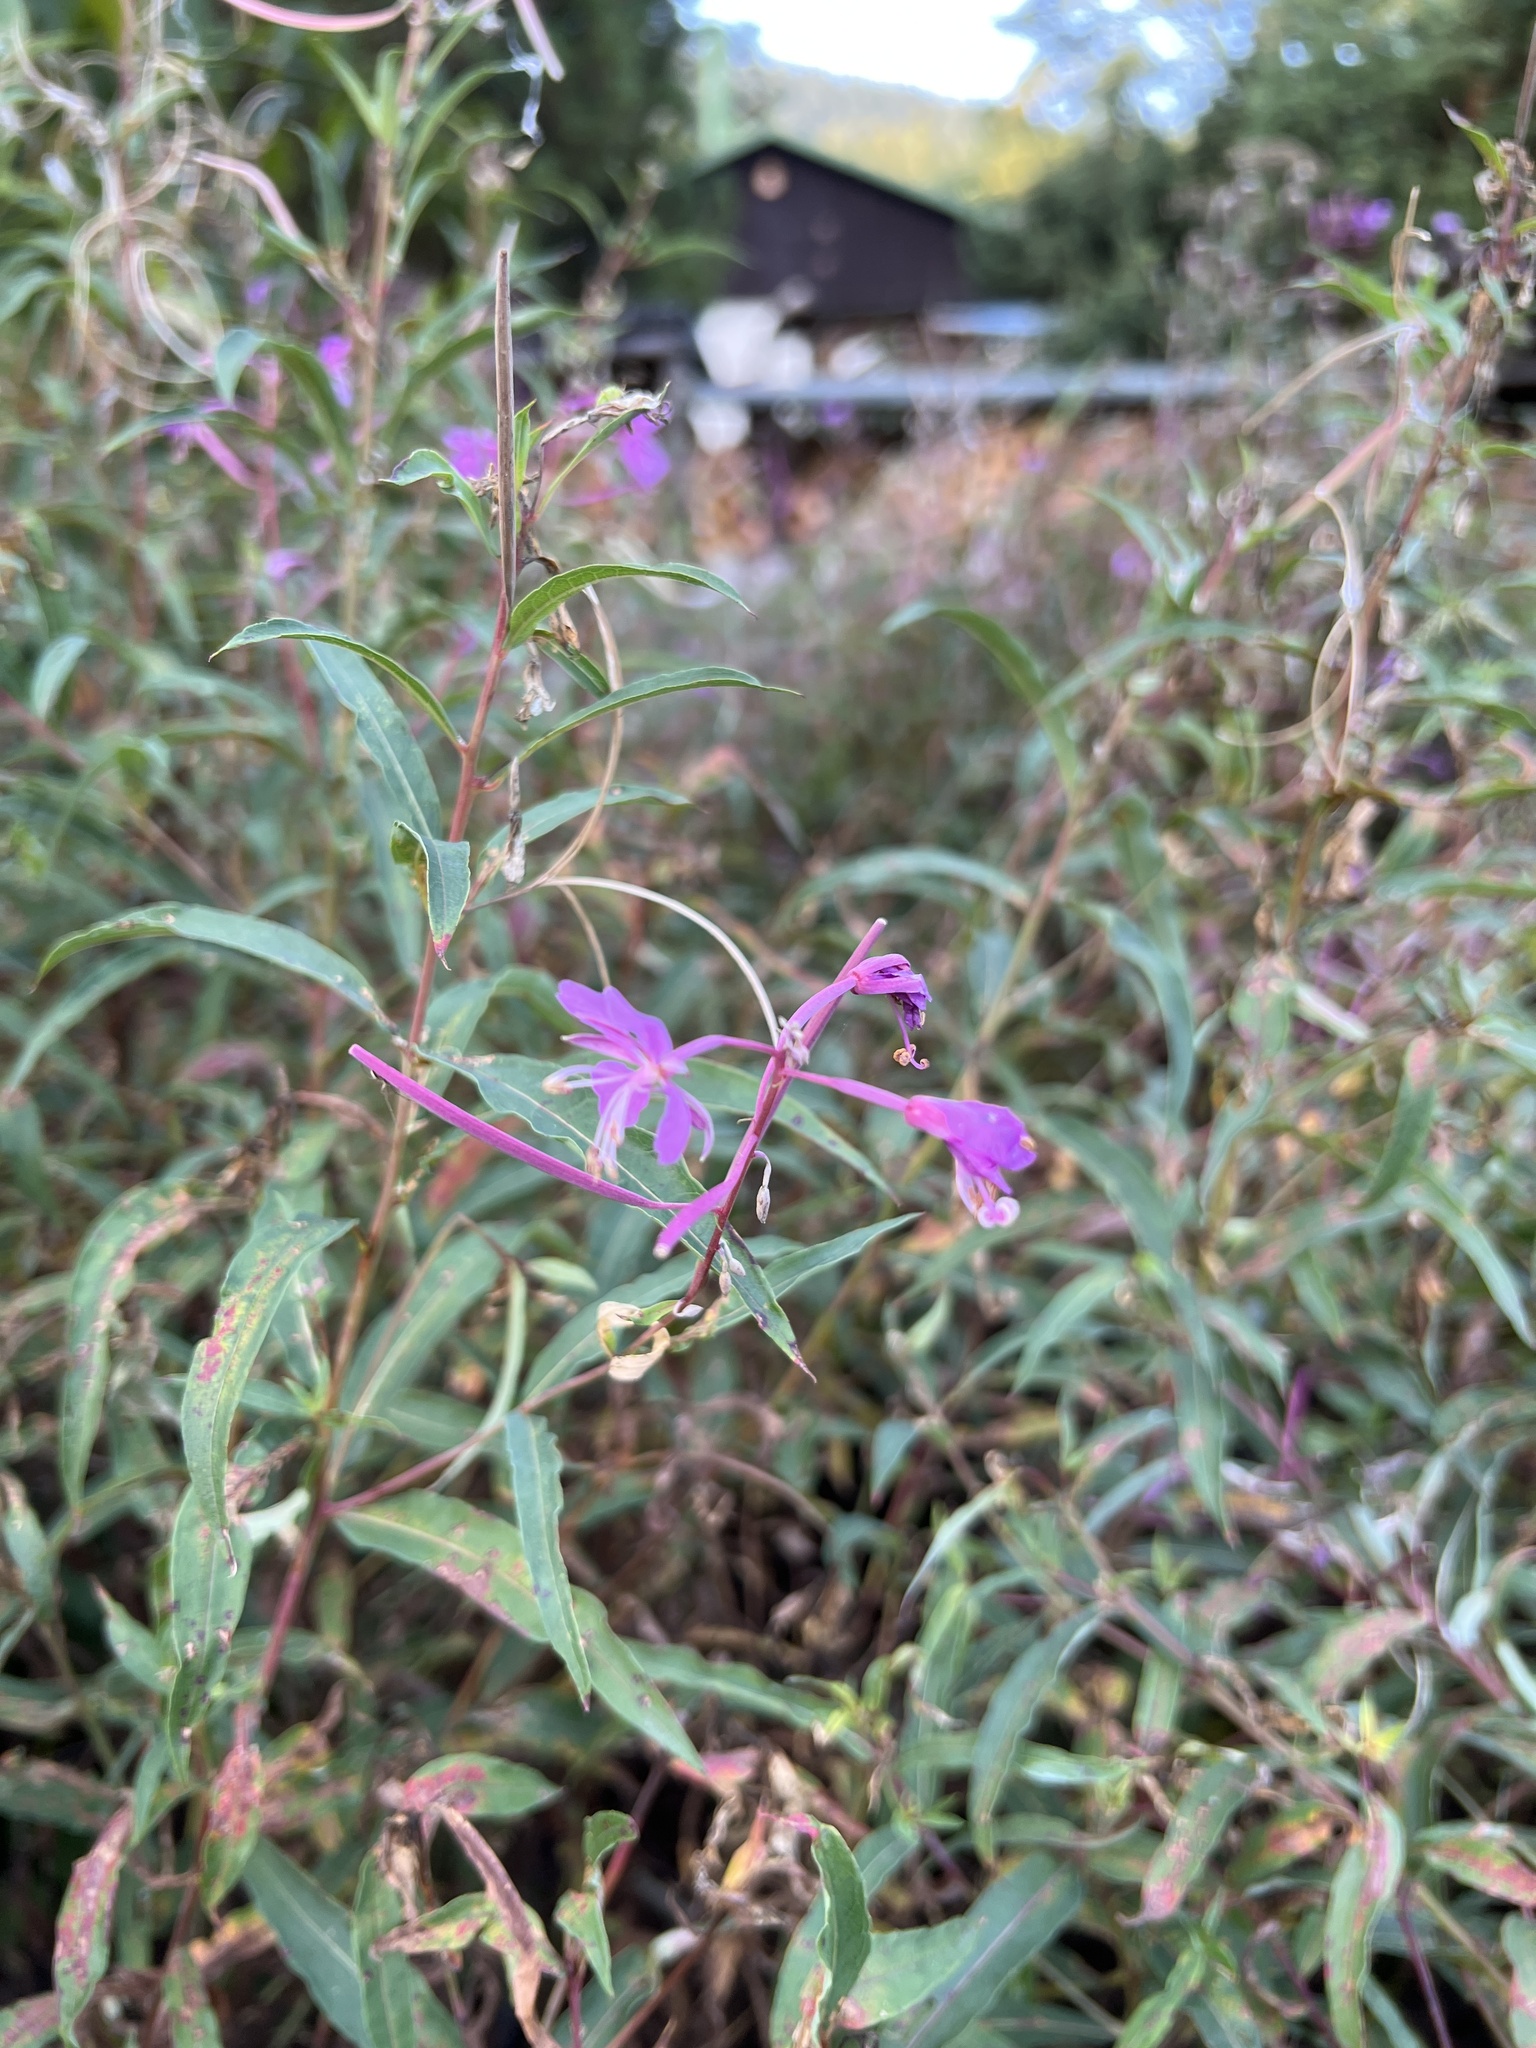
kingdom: Plantae
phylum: Tracheophyta
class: Magnoliopsida
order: Myrtales
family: Onagraceae
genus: Chamaenerion
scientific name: Chamaenerion angustifolium
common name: Fireweed
